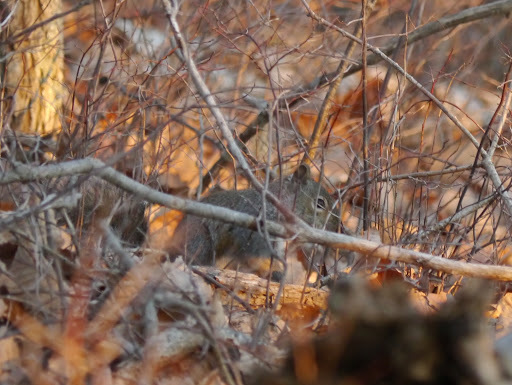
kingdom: Animalia
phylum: Chordata
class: Mammalia
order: Rodentia
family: Sciuridae
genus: Sciurus
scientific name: Sciurus carolinensis
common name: Eastern gray squirrel
